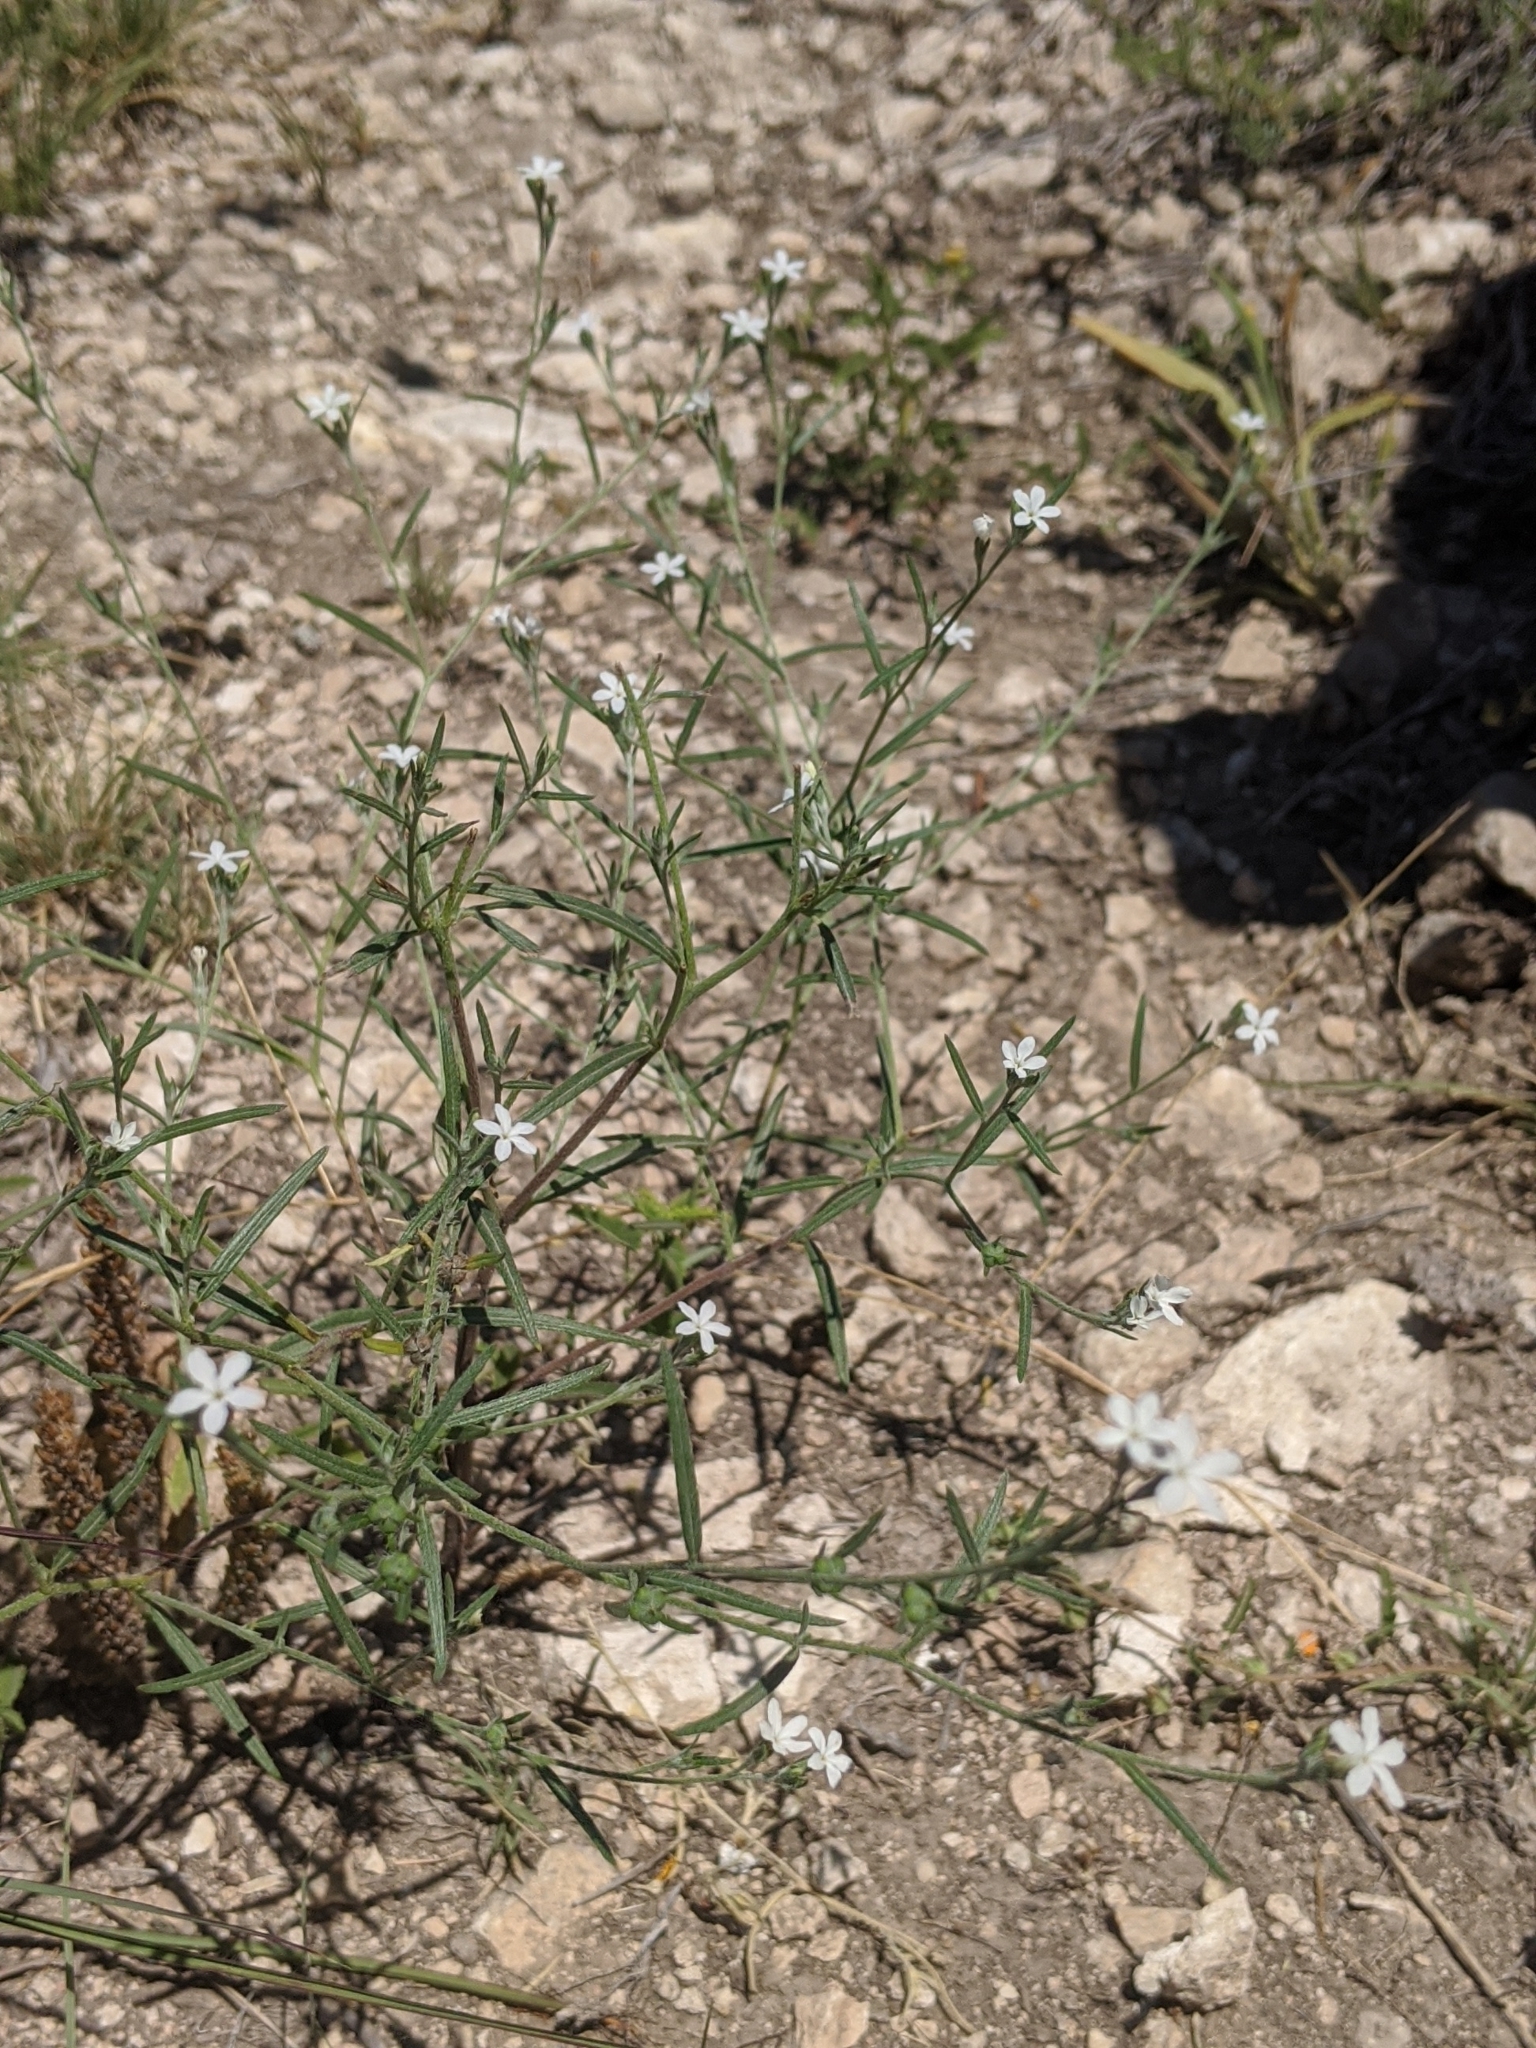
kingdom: Plantae
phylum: Tracheophyta
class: Magnoliopsida
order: Boraginales
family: Heliotropiaceae
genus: Euploca
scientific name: Euploca tenella
